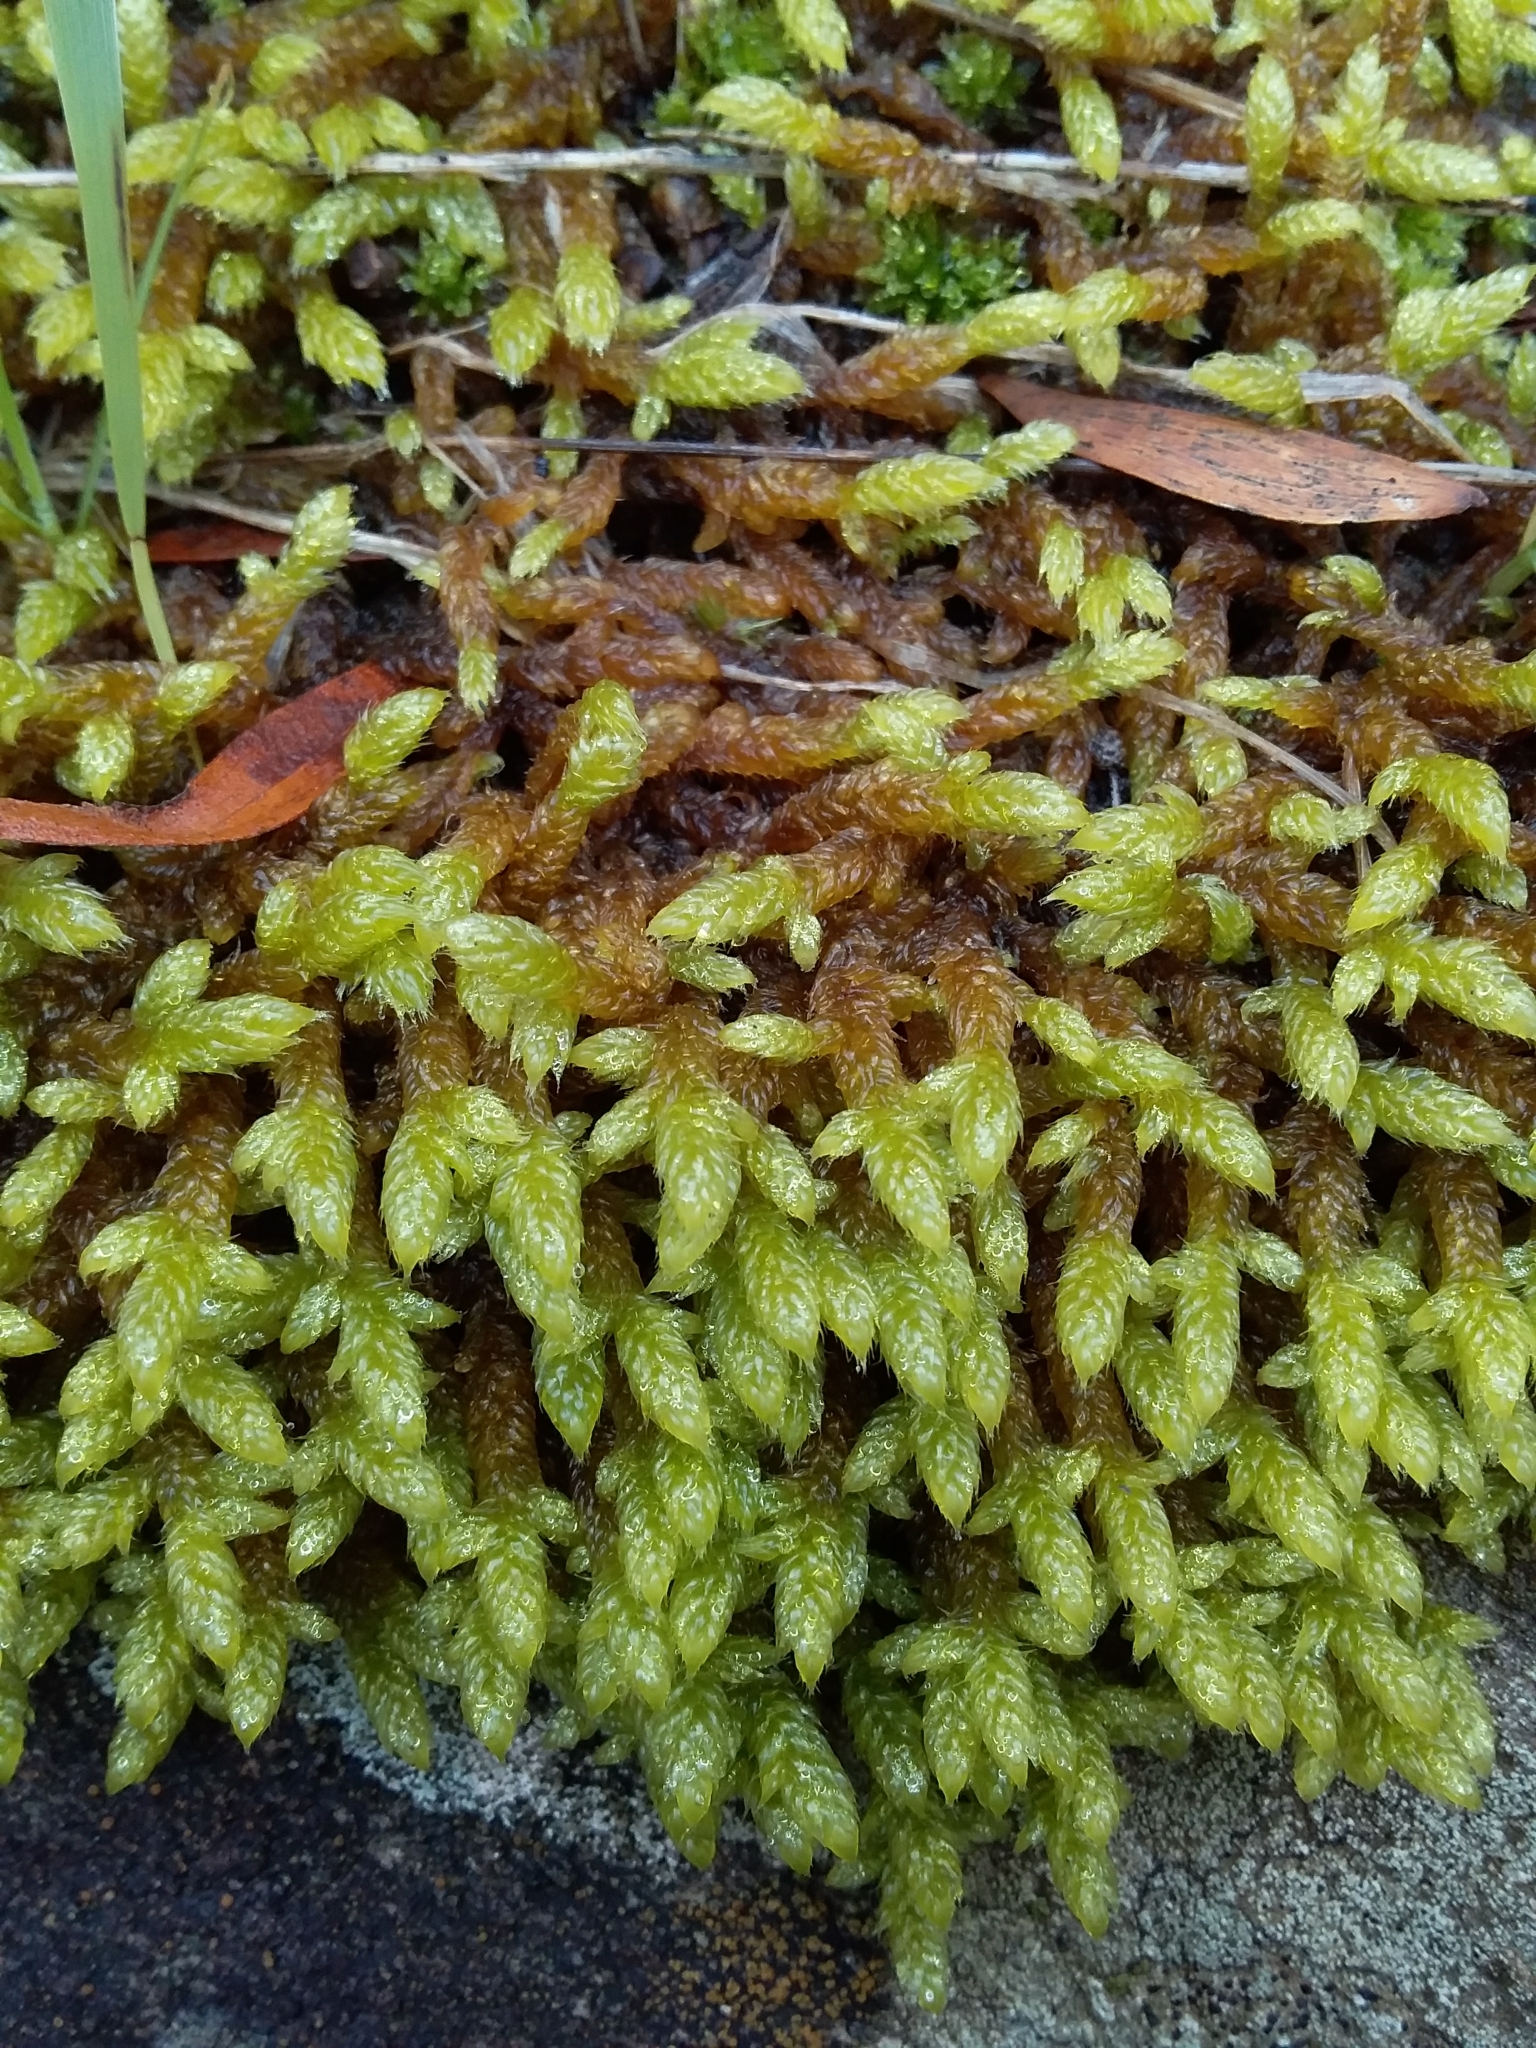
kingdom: Plantae
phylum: Bryophyta
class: Bryopsida
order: Hypnales
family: Hypnaceae
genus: Hypnum
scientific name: Hypnum cupressiforme
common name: Cypress-leaved plait-moss
